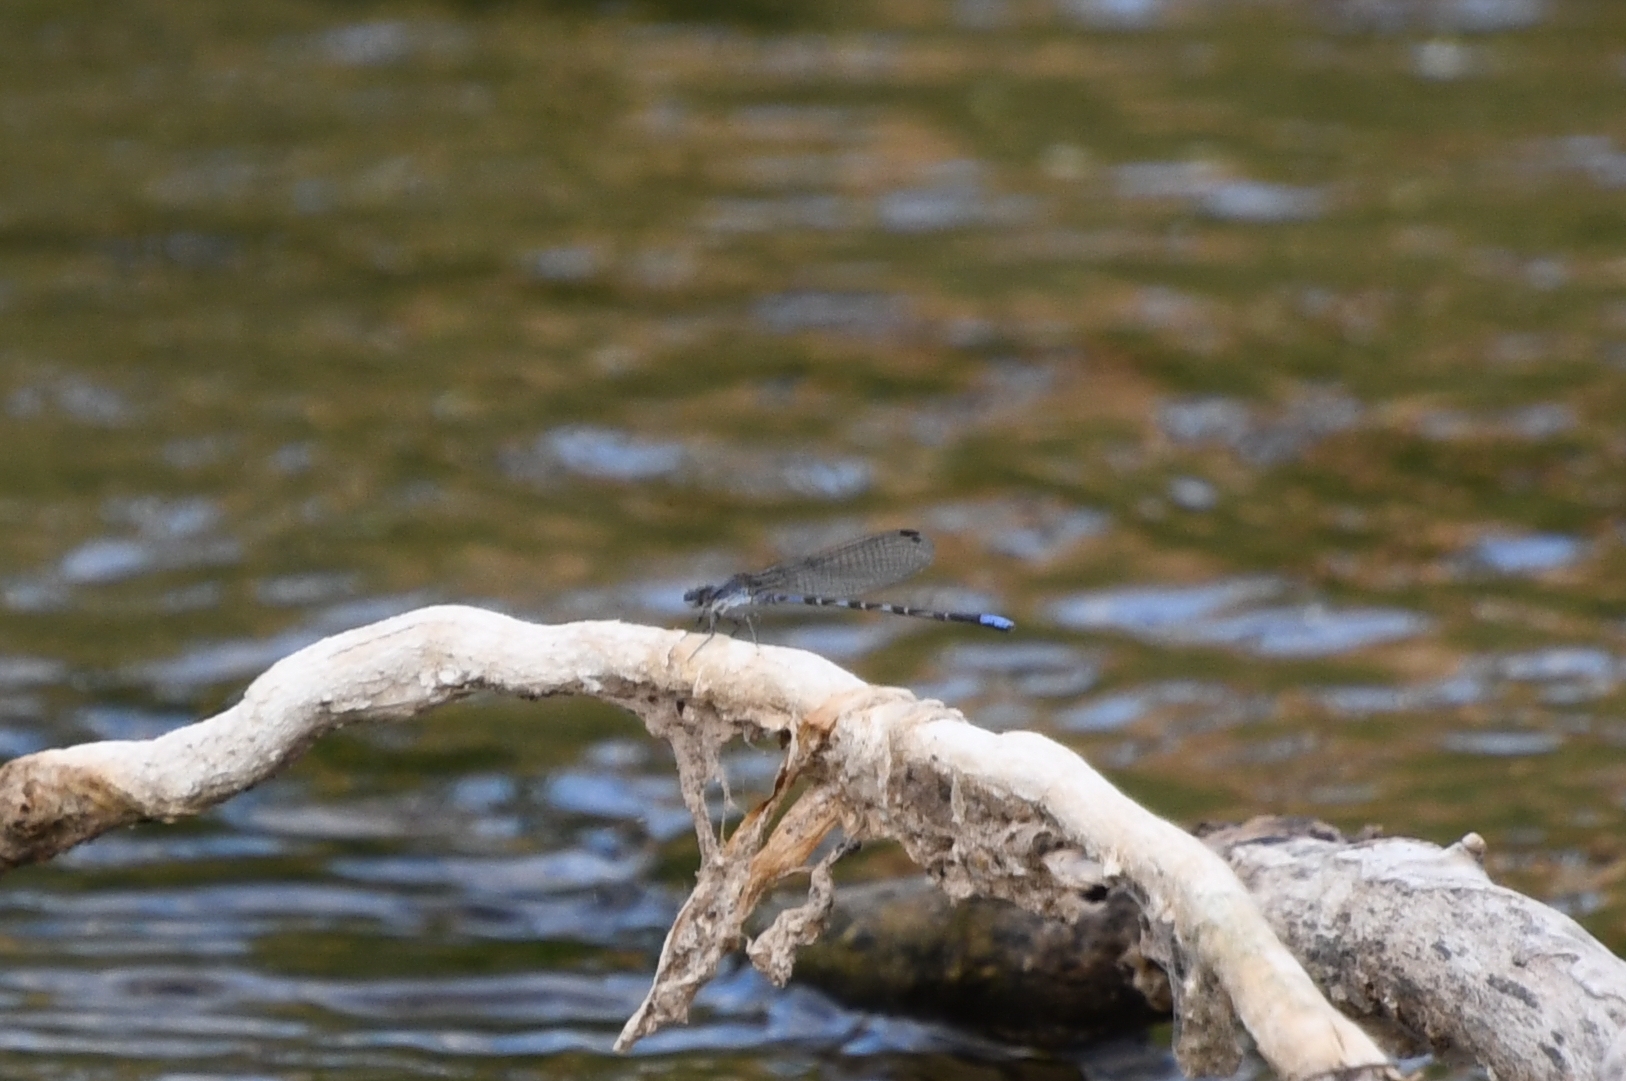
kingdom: Animalia
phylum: Arthropoda
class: Insecta
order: Odonata
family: Coenagrionidae
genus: Argia
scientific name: Argia immunda
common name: Kiowa dancer
